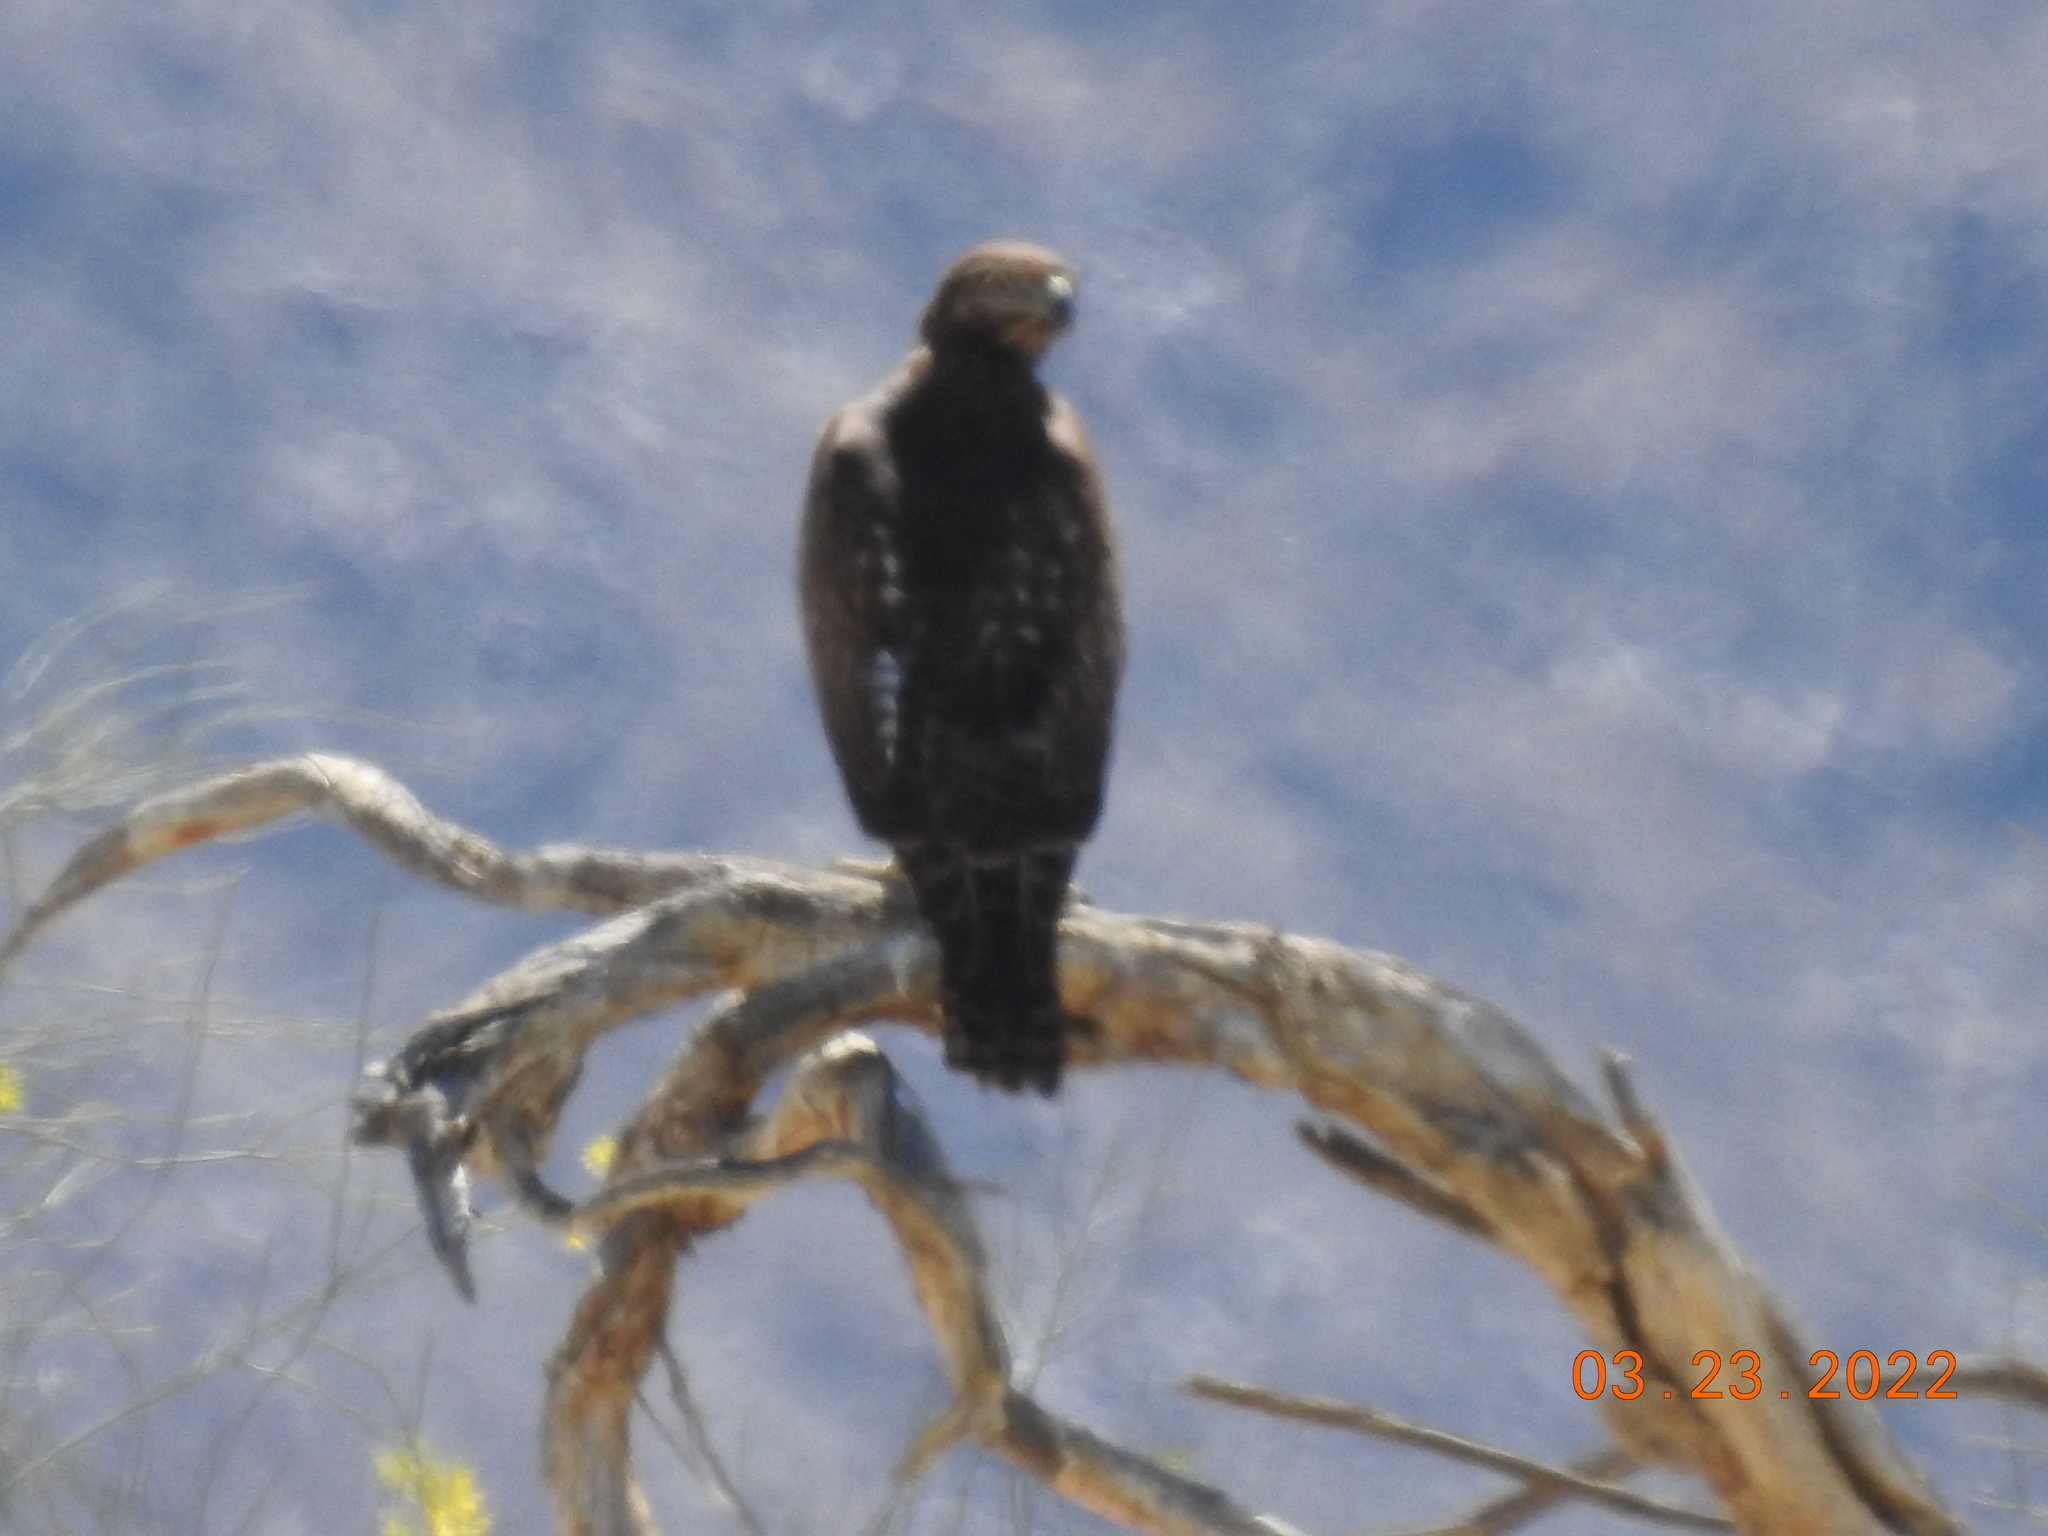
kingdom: Animalia
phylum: Chordata
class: Aves
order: Accipitriformes
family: Accipitridae
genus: Buteo
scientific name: Buteo jamaicensis
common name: Red-tailed hawk
